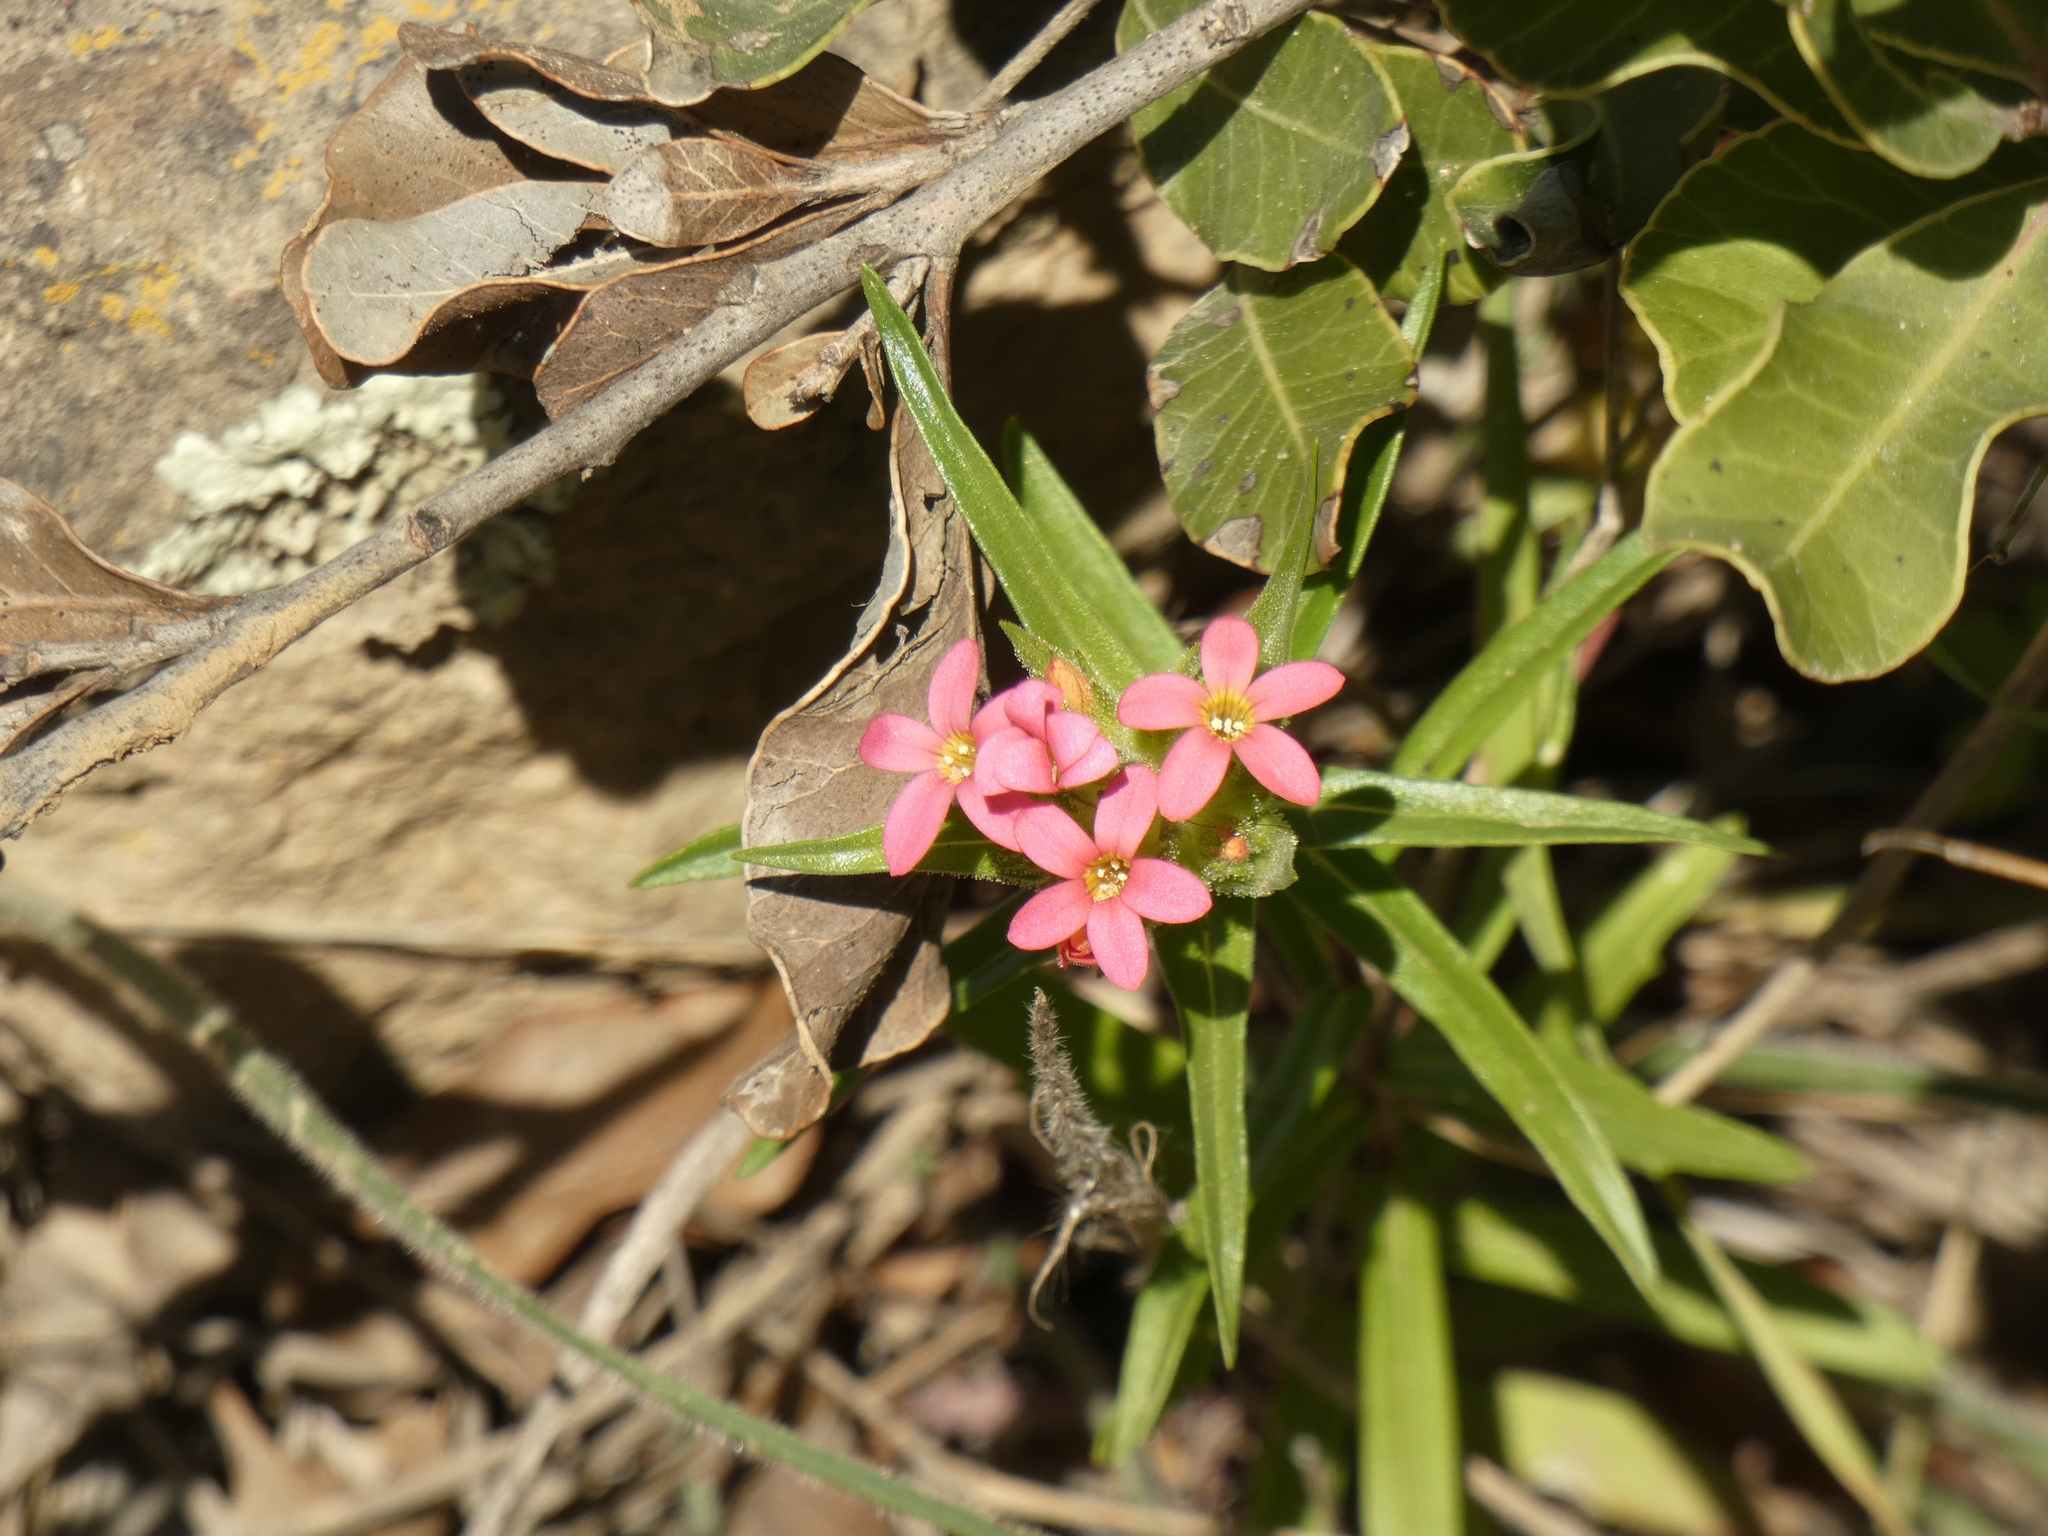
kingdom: Plantae
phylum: Tracheophyta
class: Magnoliopsida
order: Ericales
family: Polemoniaceae
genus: Collomia
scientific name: Collomia biflora
